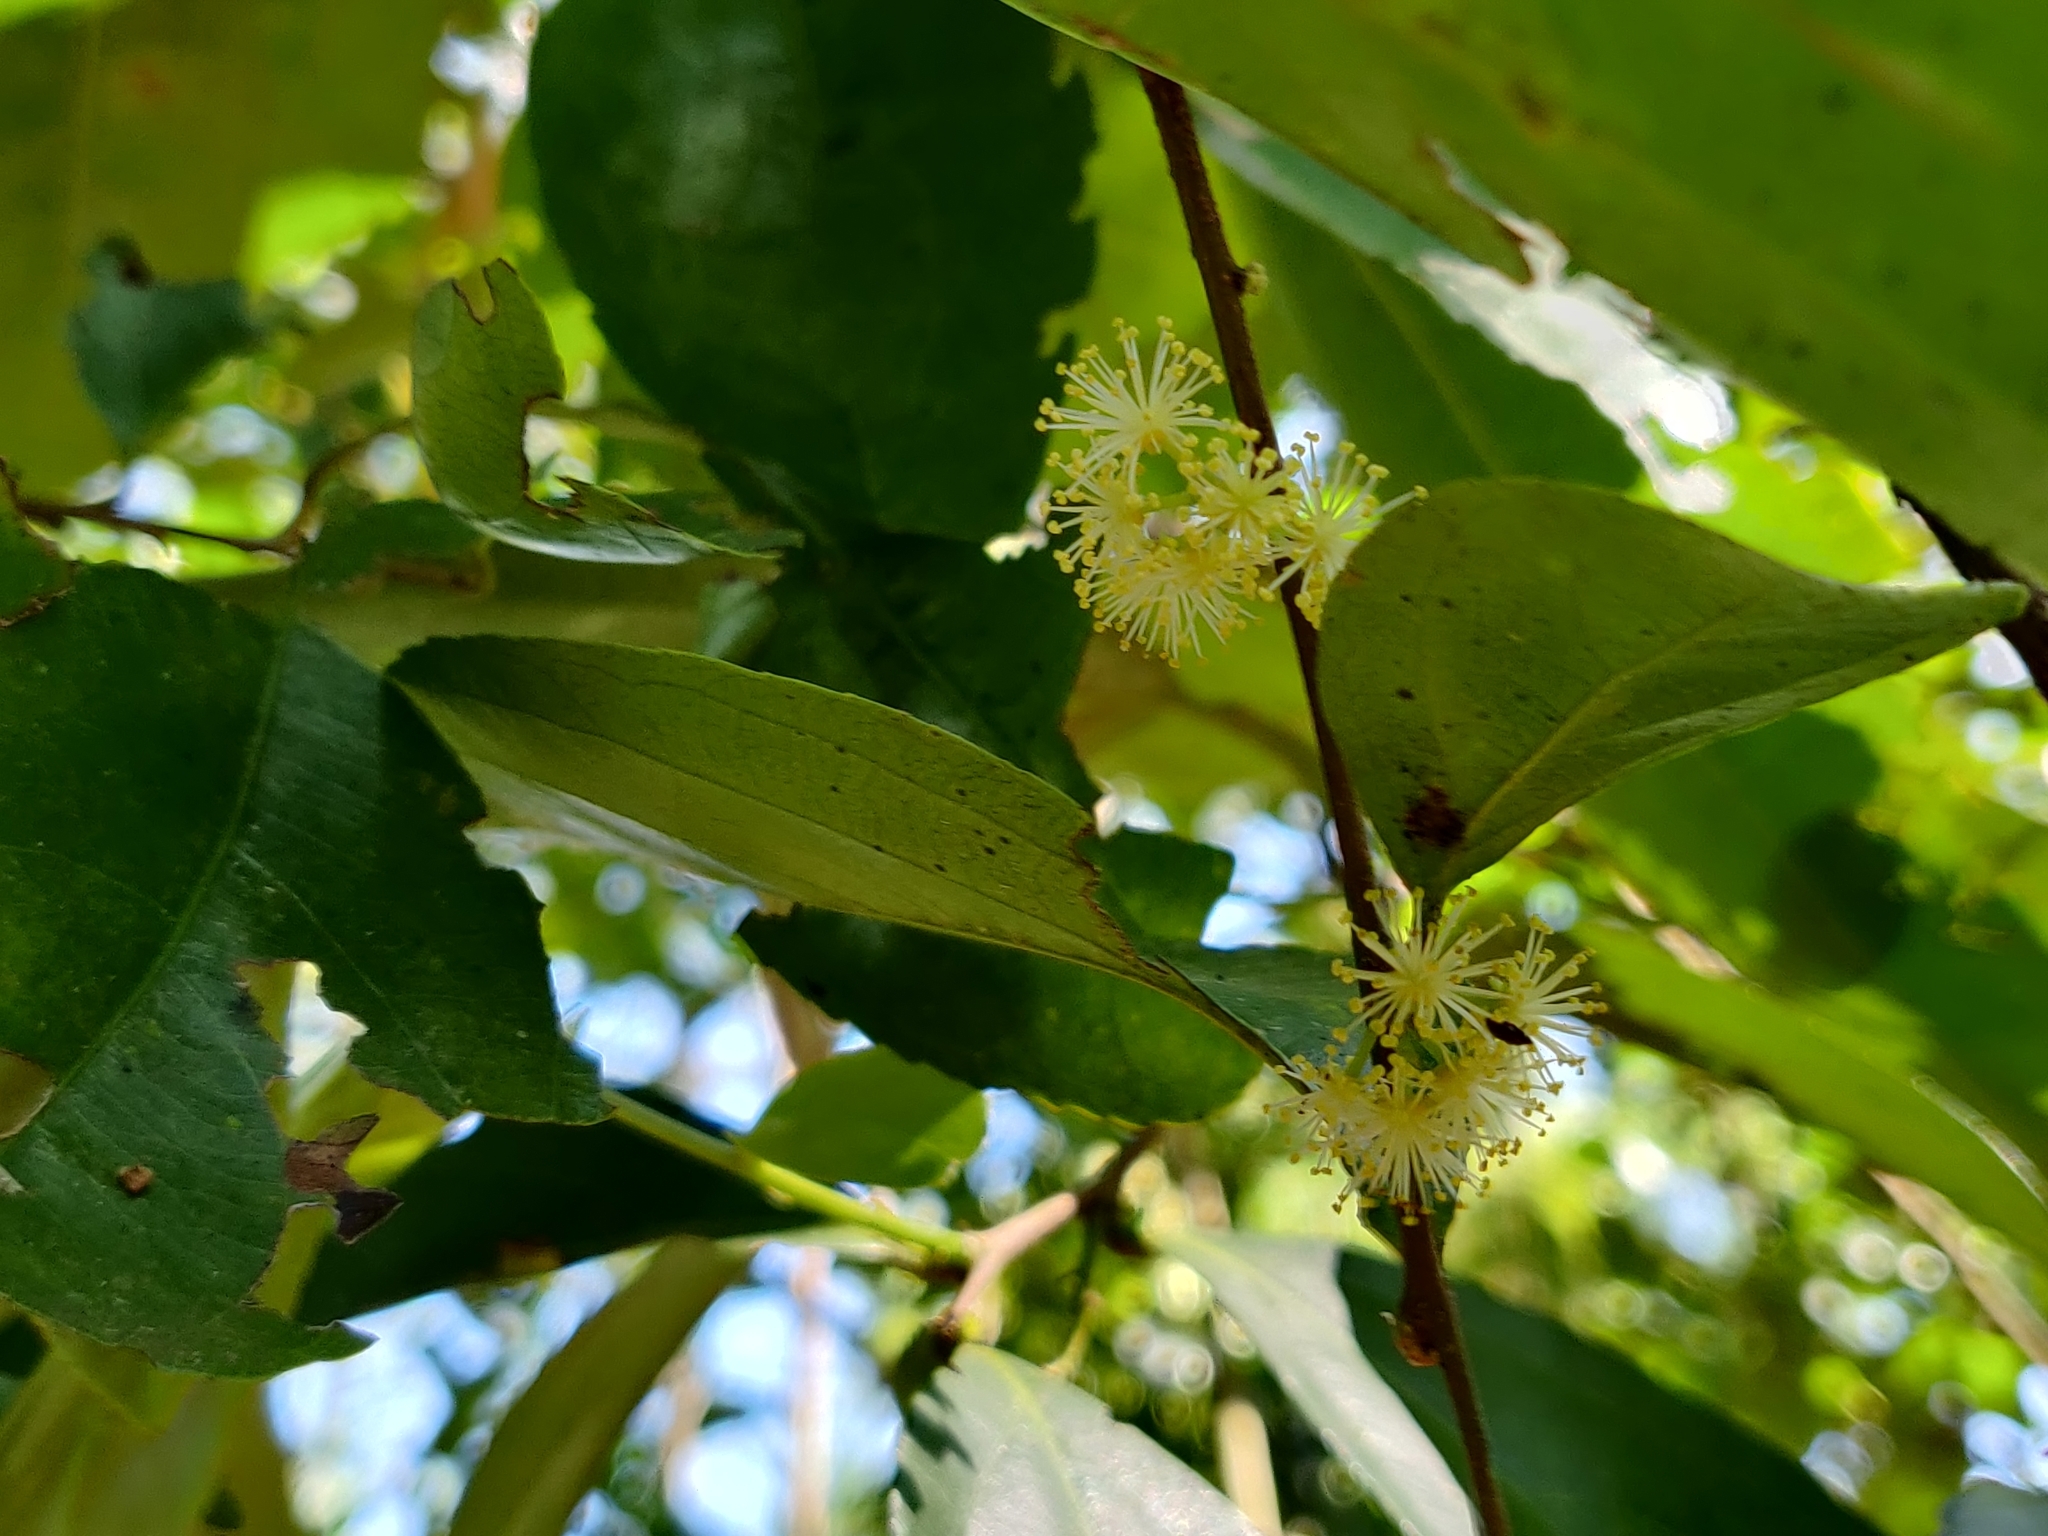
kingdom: Plantae
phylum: Tracheophyta
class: Magnoliopsida
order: Malpighiales
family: Salicaceae
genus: Flacourtia
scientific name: Flacourtia montana
